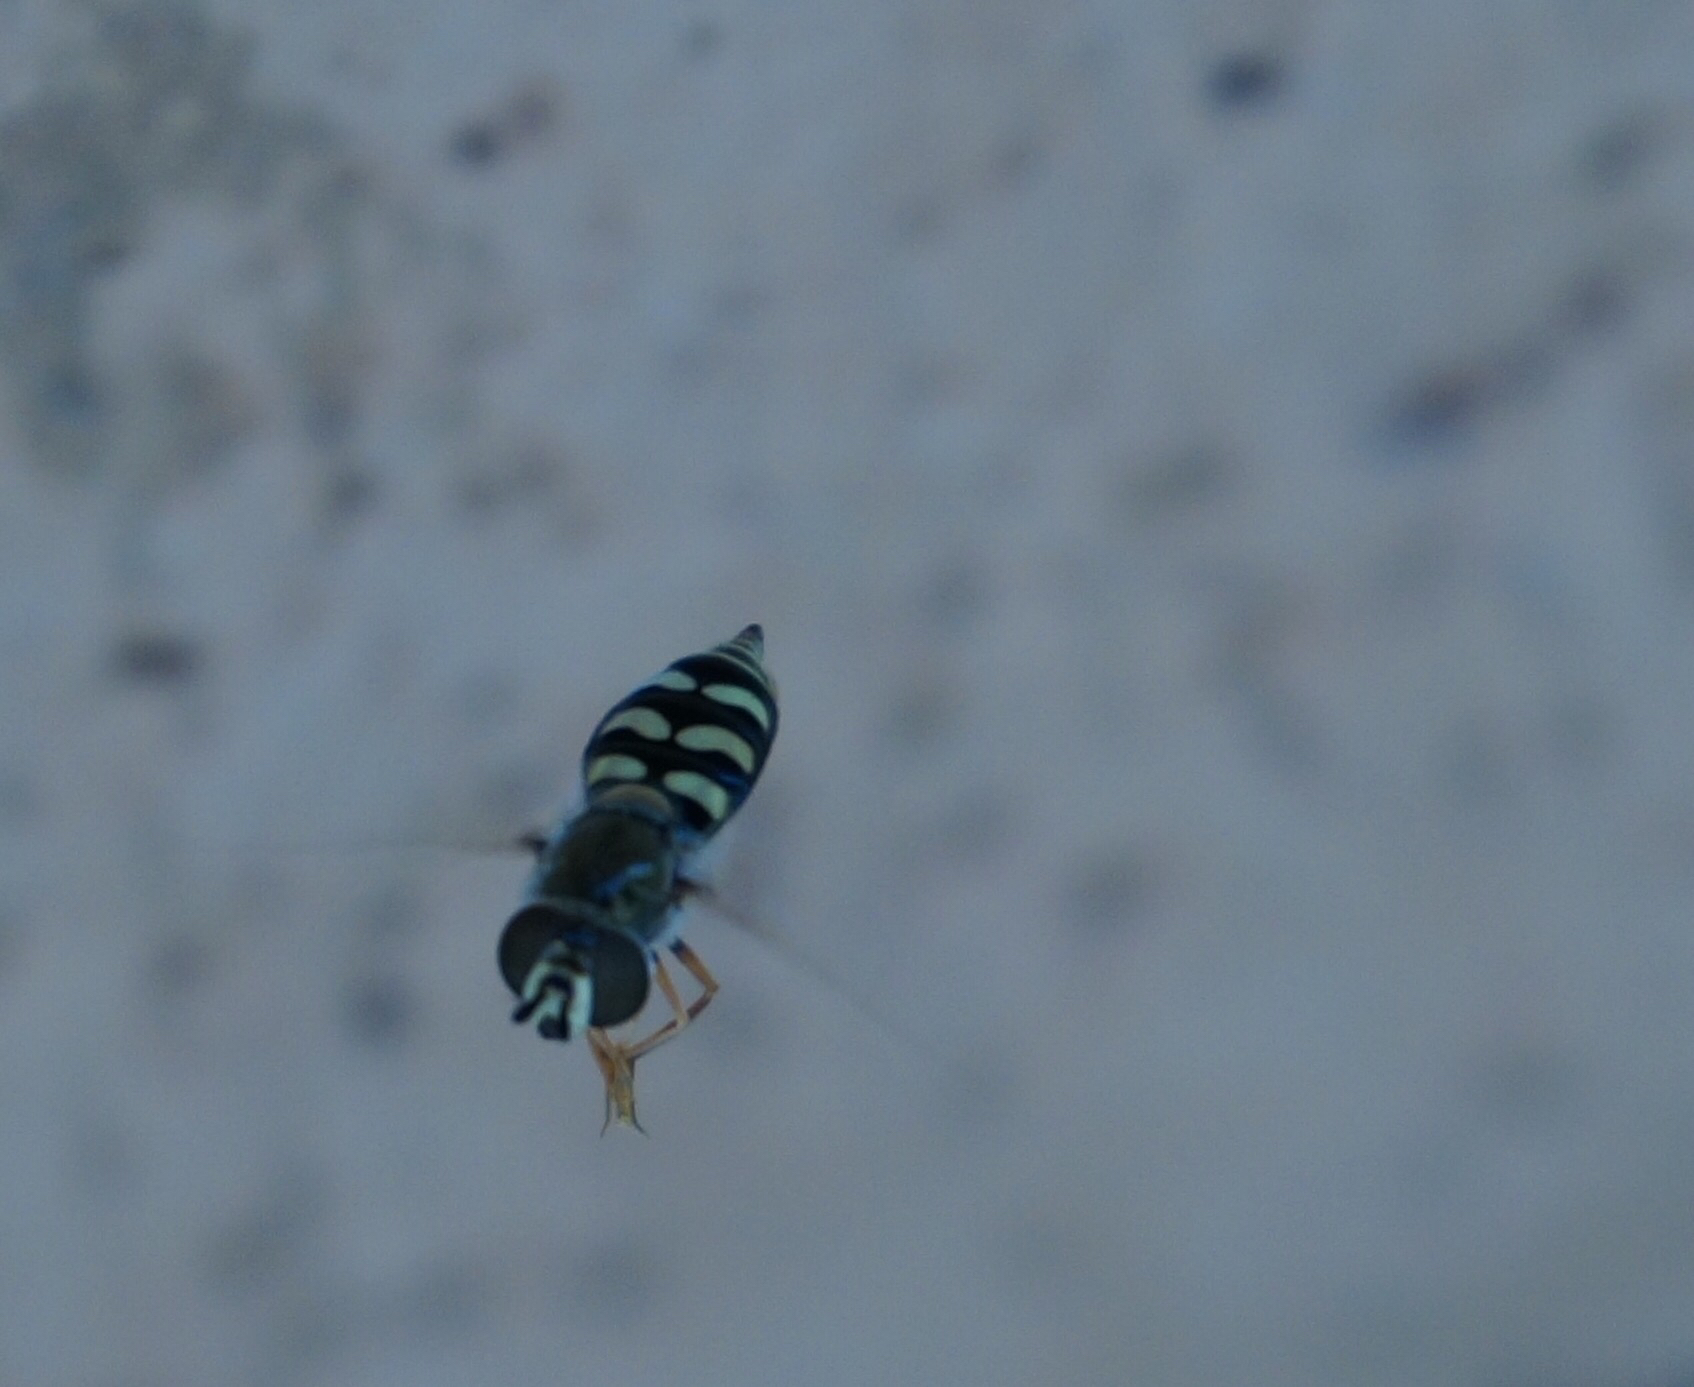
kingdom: Animalia
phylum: Arthropoda
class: Insecta
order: Diptera
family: Syrphidae
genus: Eupeodes
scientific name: Eupeodes volucris
